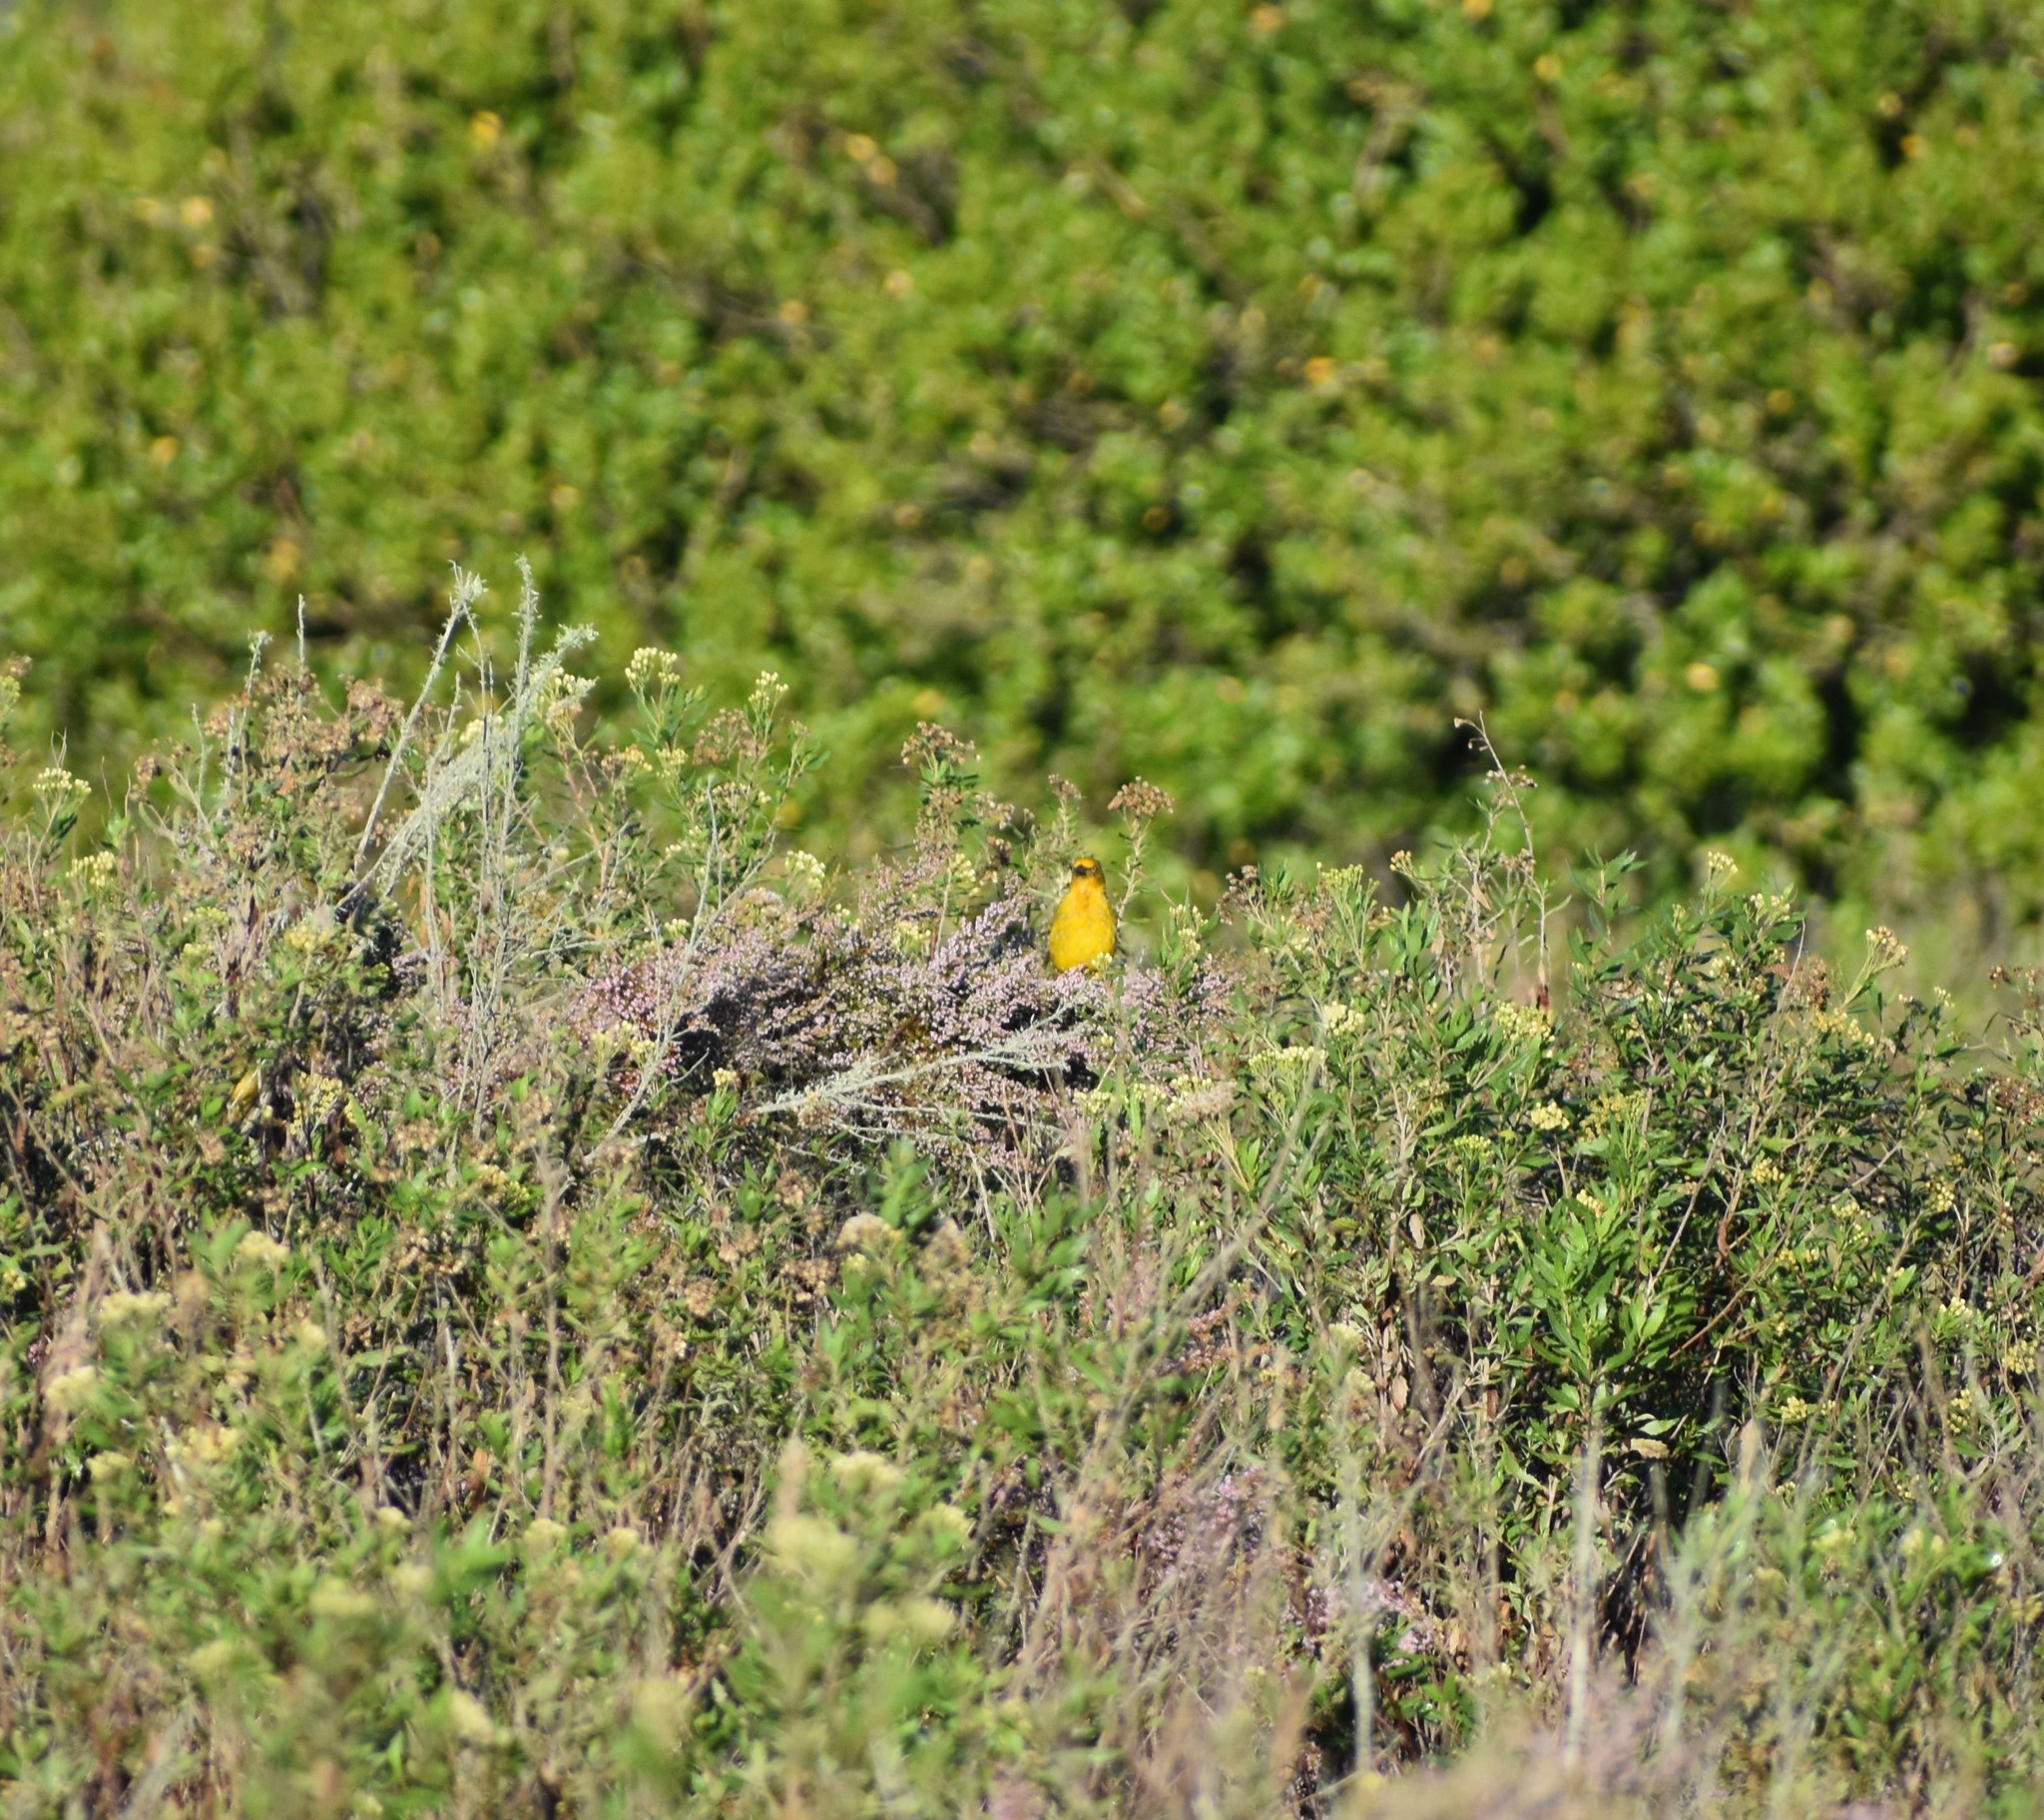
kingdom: Animalia
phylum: Chordata
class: Aves
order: Passeriformes
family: Ploceidae
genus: Ploceus
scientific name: Ploceus capensis
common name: Cape weaver
